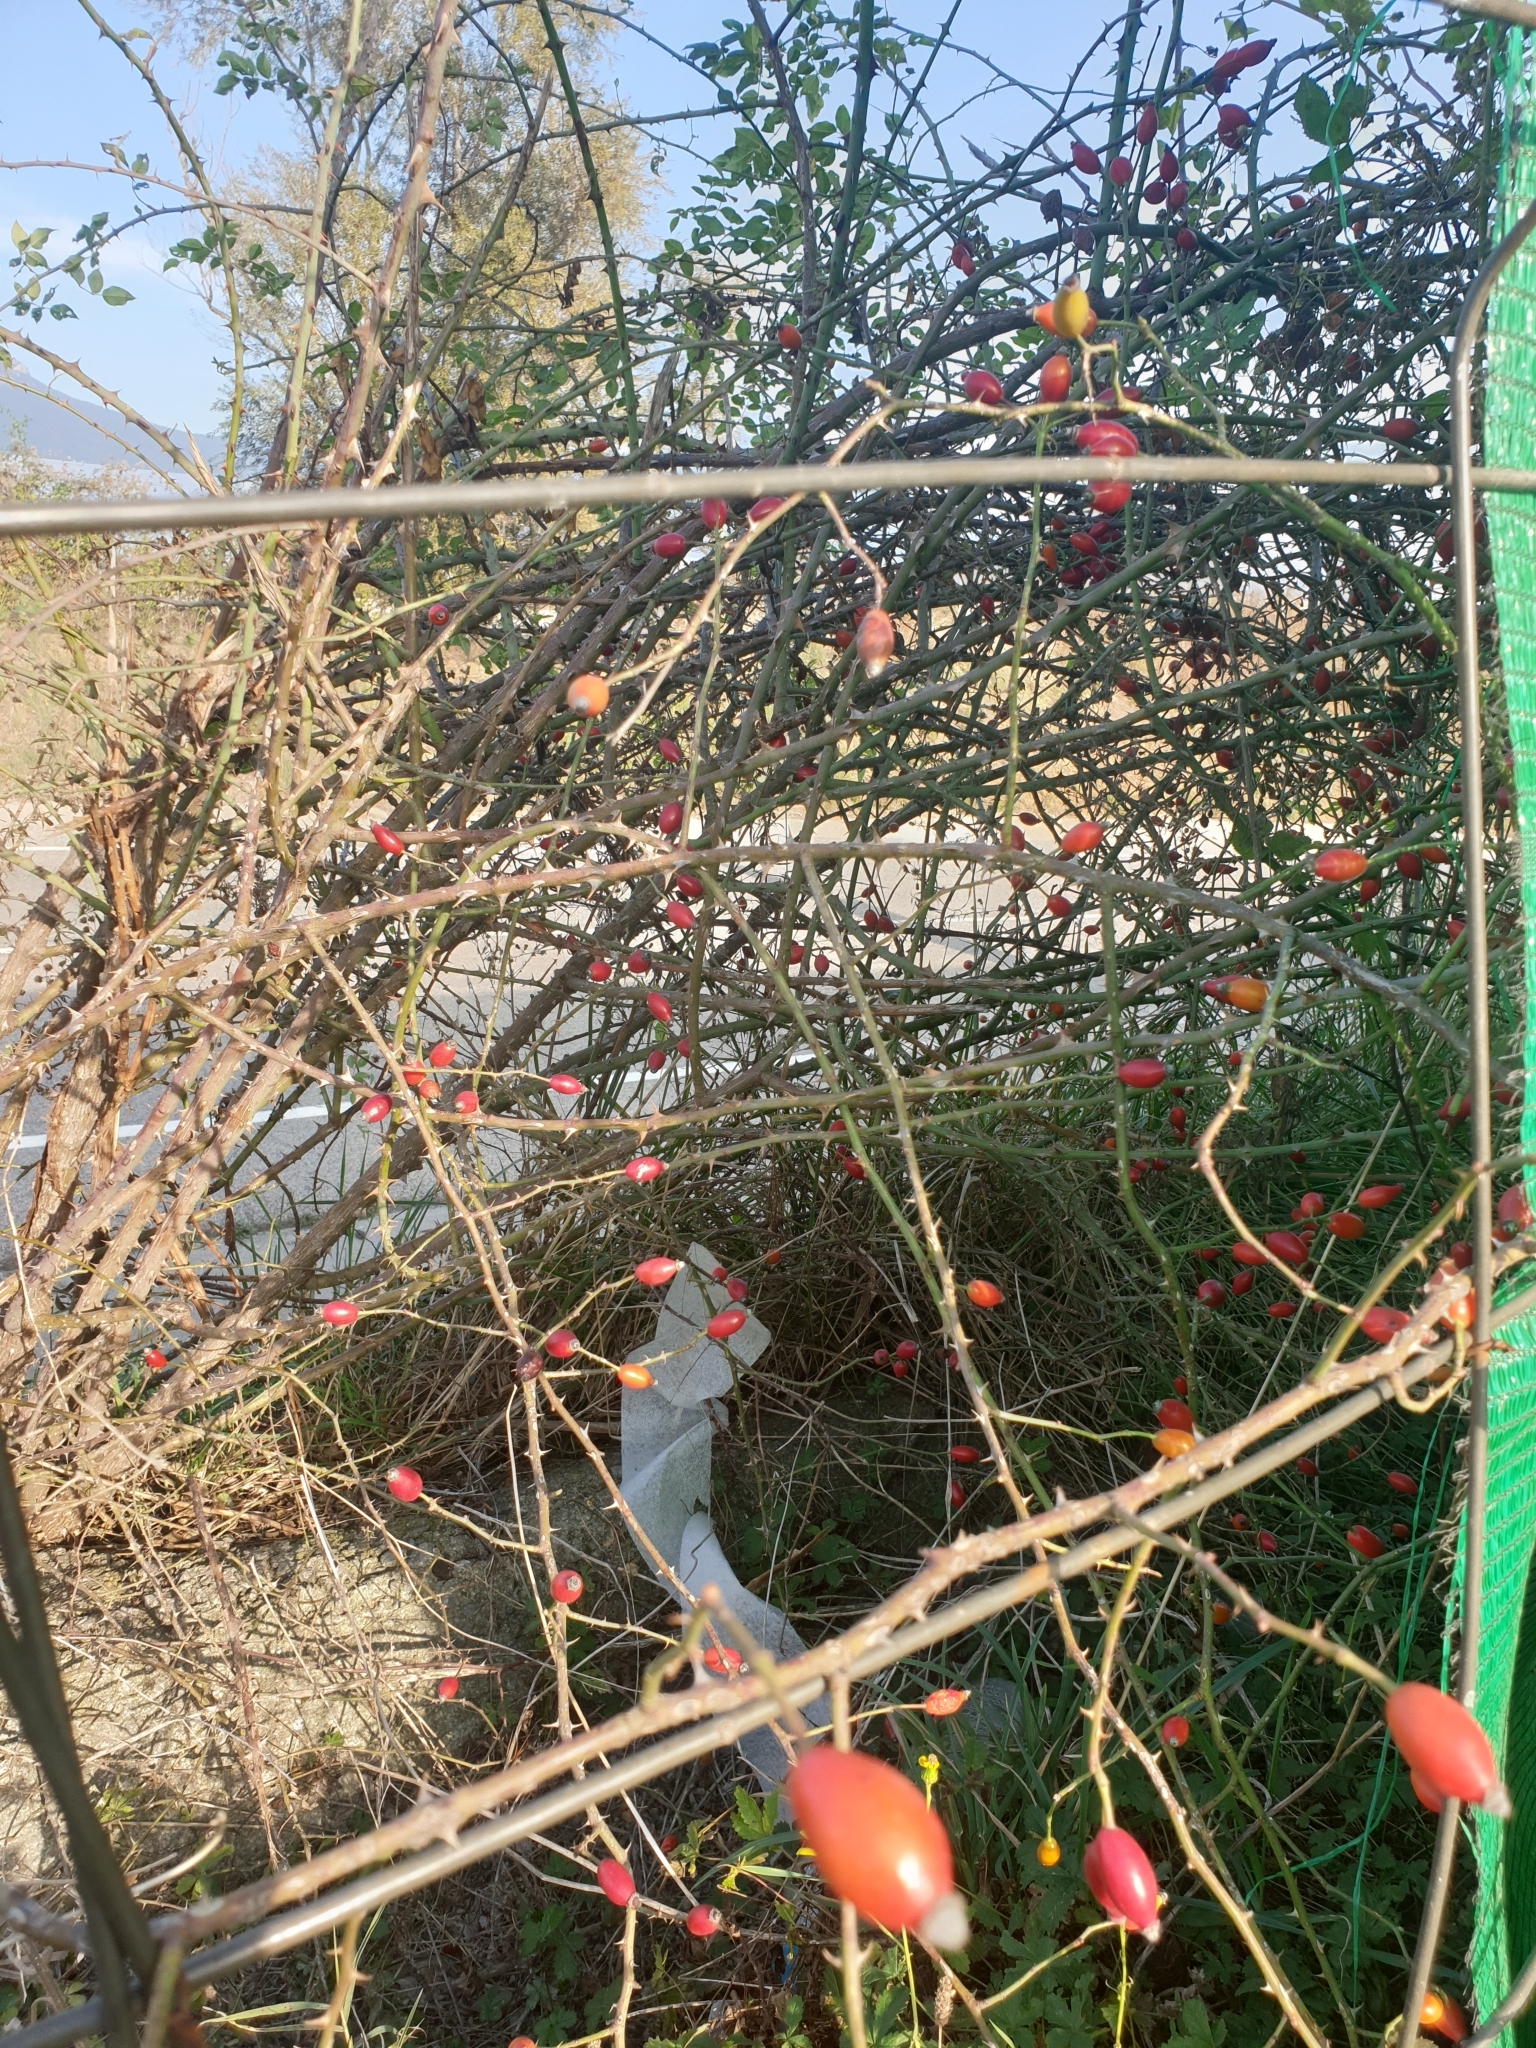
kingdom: Plantae
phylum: Tracheophyta
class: Magnoliopsida
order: Rosales
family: Rosaceae
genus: Rosa
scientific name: Rosa canina
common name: Dog rose
